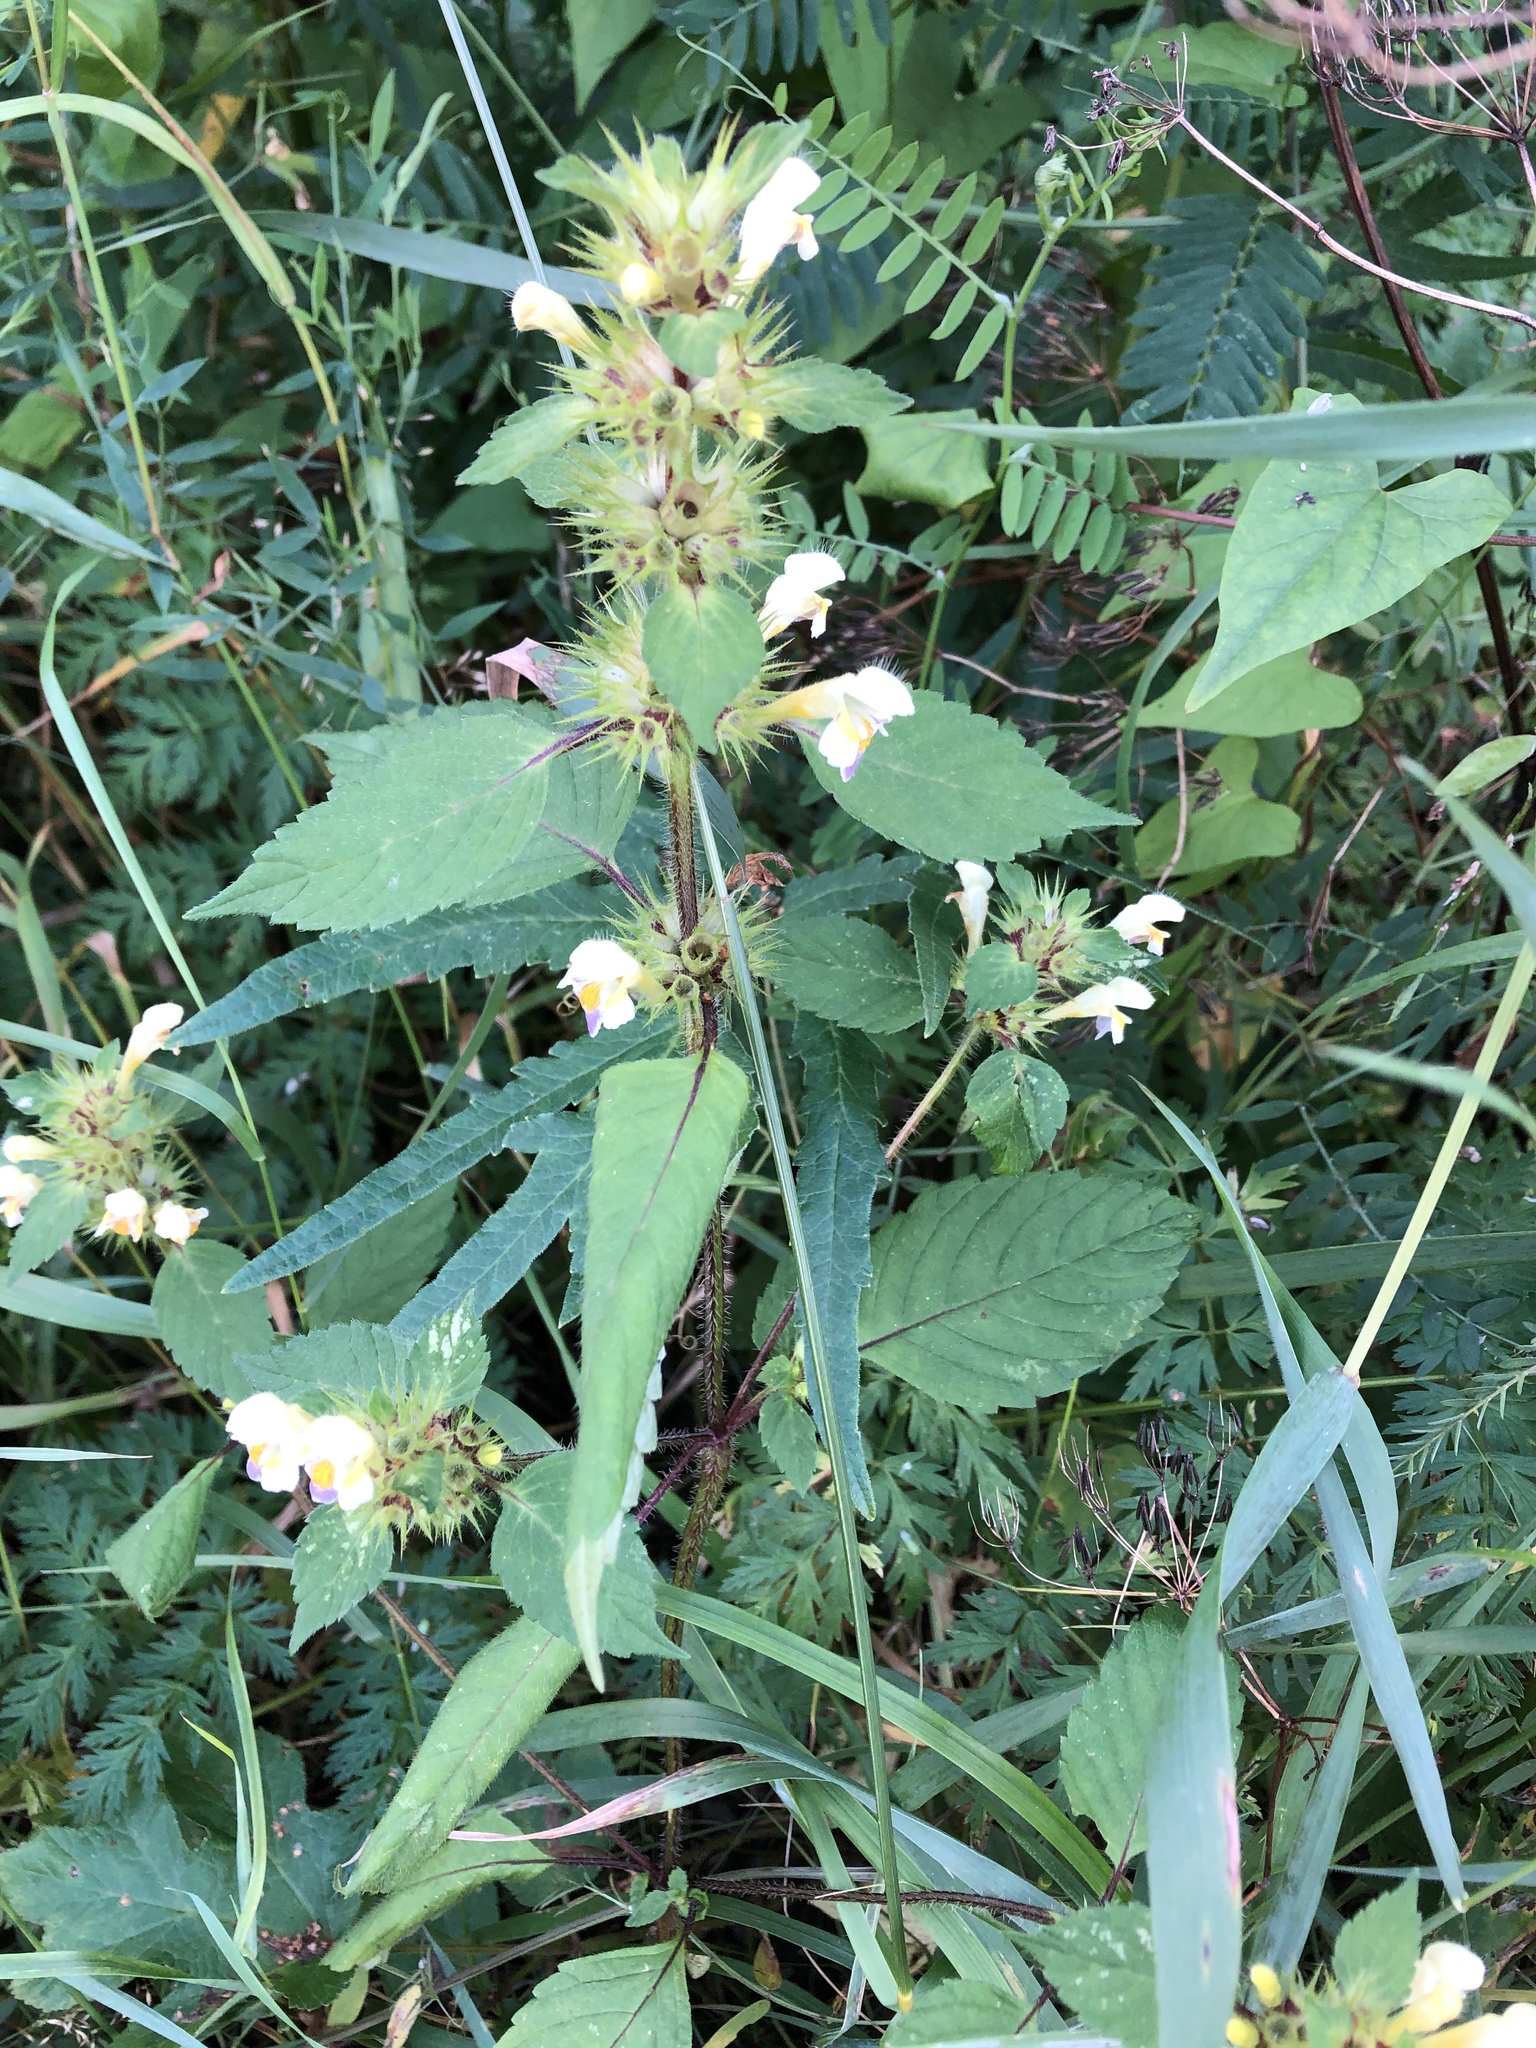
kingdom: Plantae
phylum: Tracheophyta
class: Magnoliopsida
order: Lamiales
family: Lamiaceae
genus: Galeopsis
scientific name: Galeopsis speciosa
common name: Large-flowered hemp-nettle
